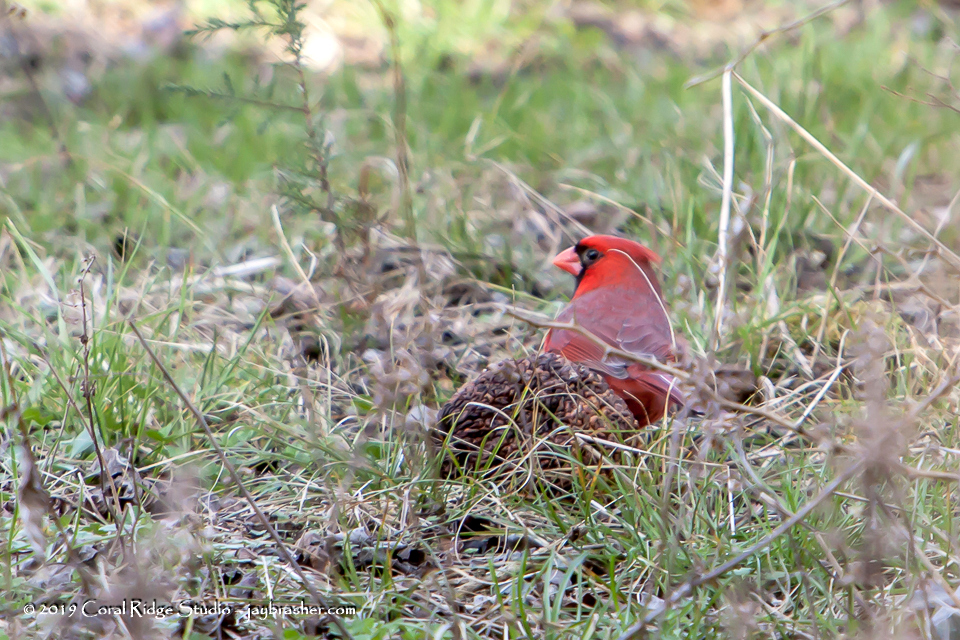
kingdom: Animalia
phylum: Chordata
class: Aves
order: Passeriformes
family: Cardinalidae
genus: Cardinalis
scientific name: Cardinalis cardinalis
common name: Northern cardinal
